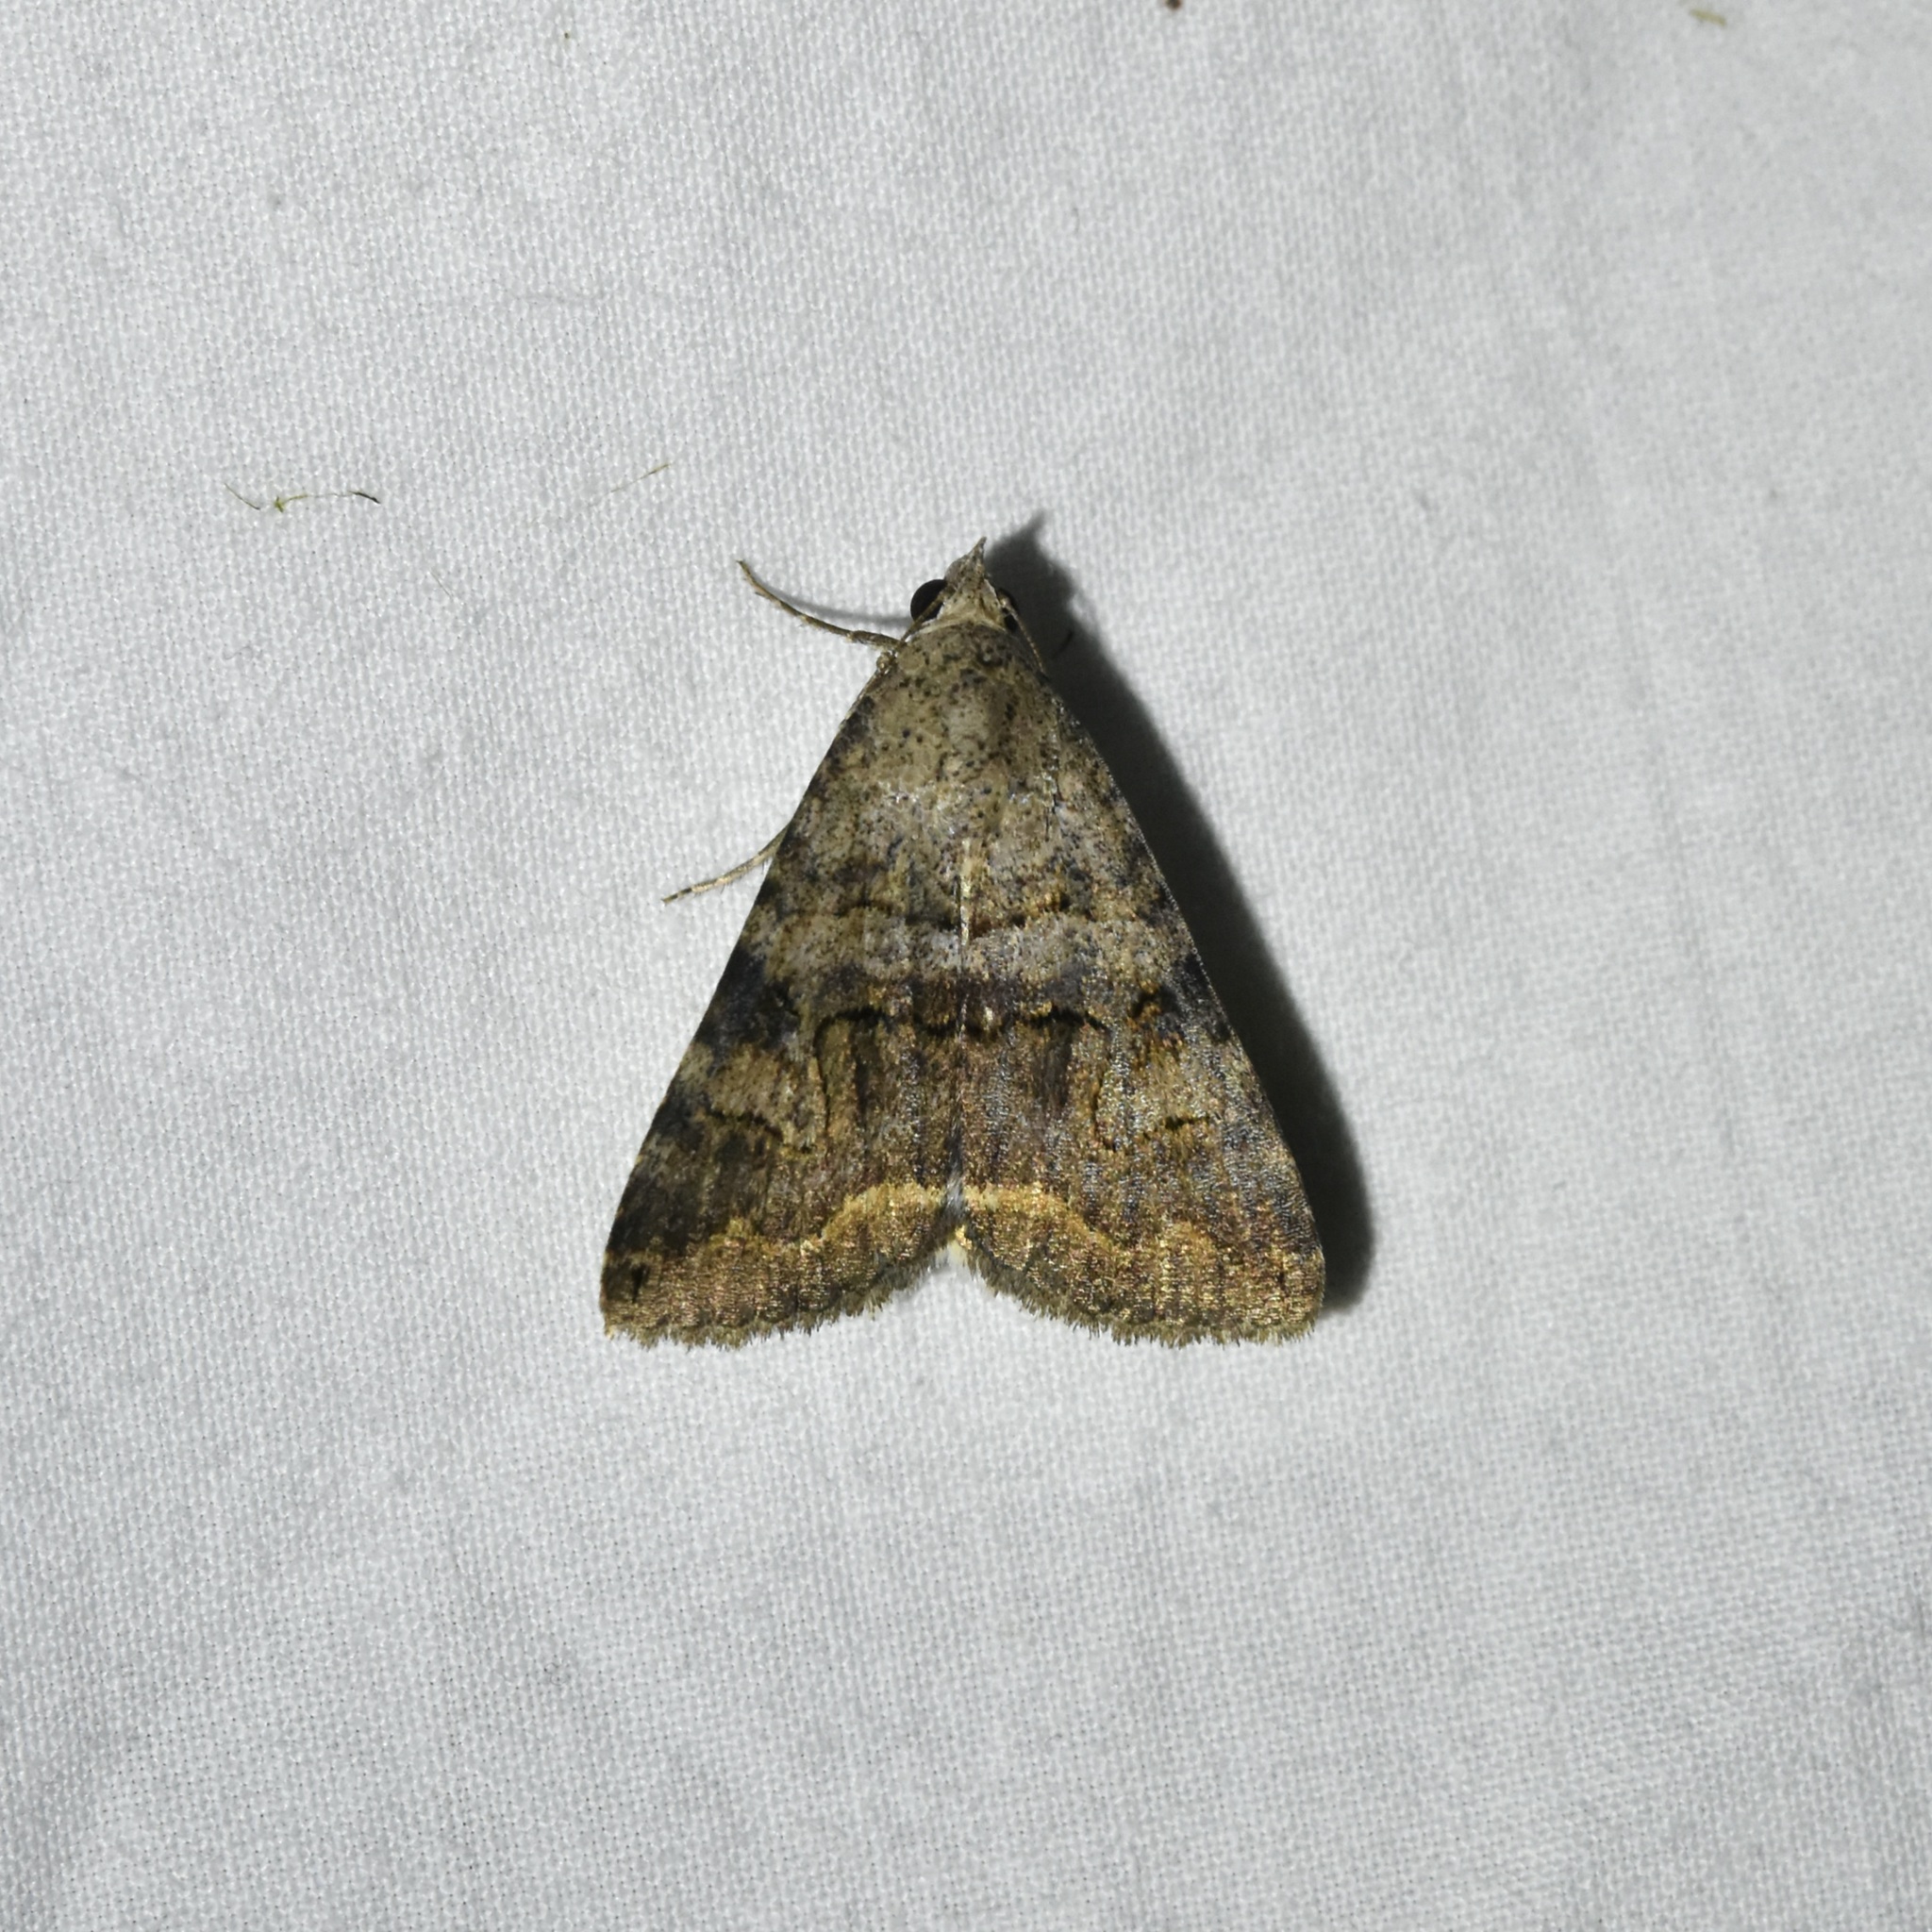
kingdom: Animalia
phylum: Arthropoda
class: Insecta
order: Lepidoptera
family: Erebidae
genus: Bulia
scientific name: Bulia deducta
